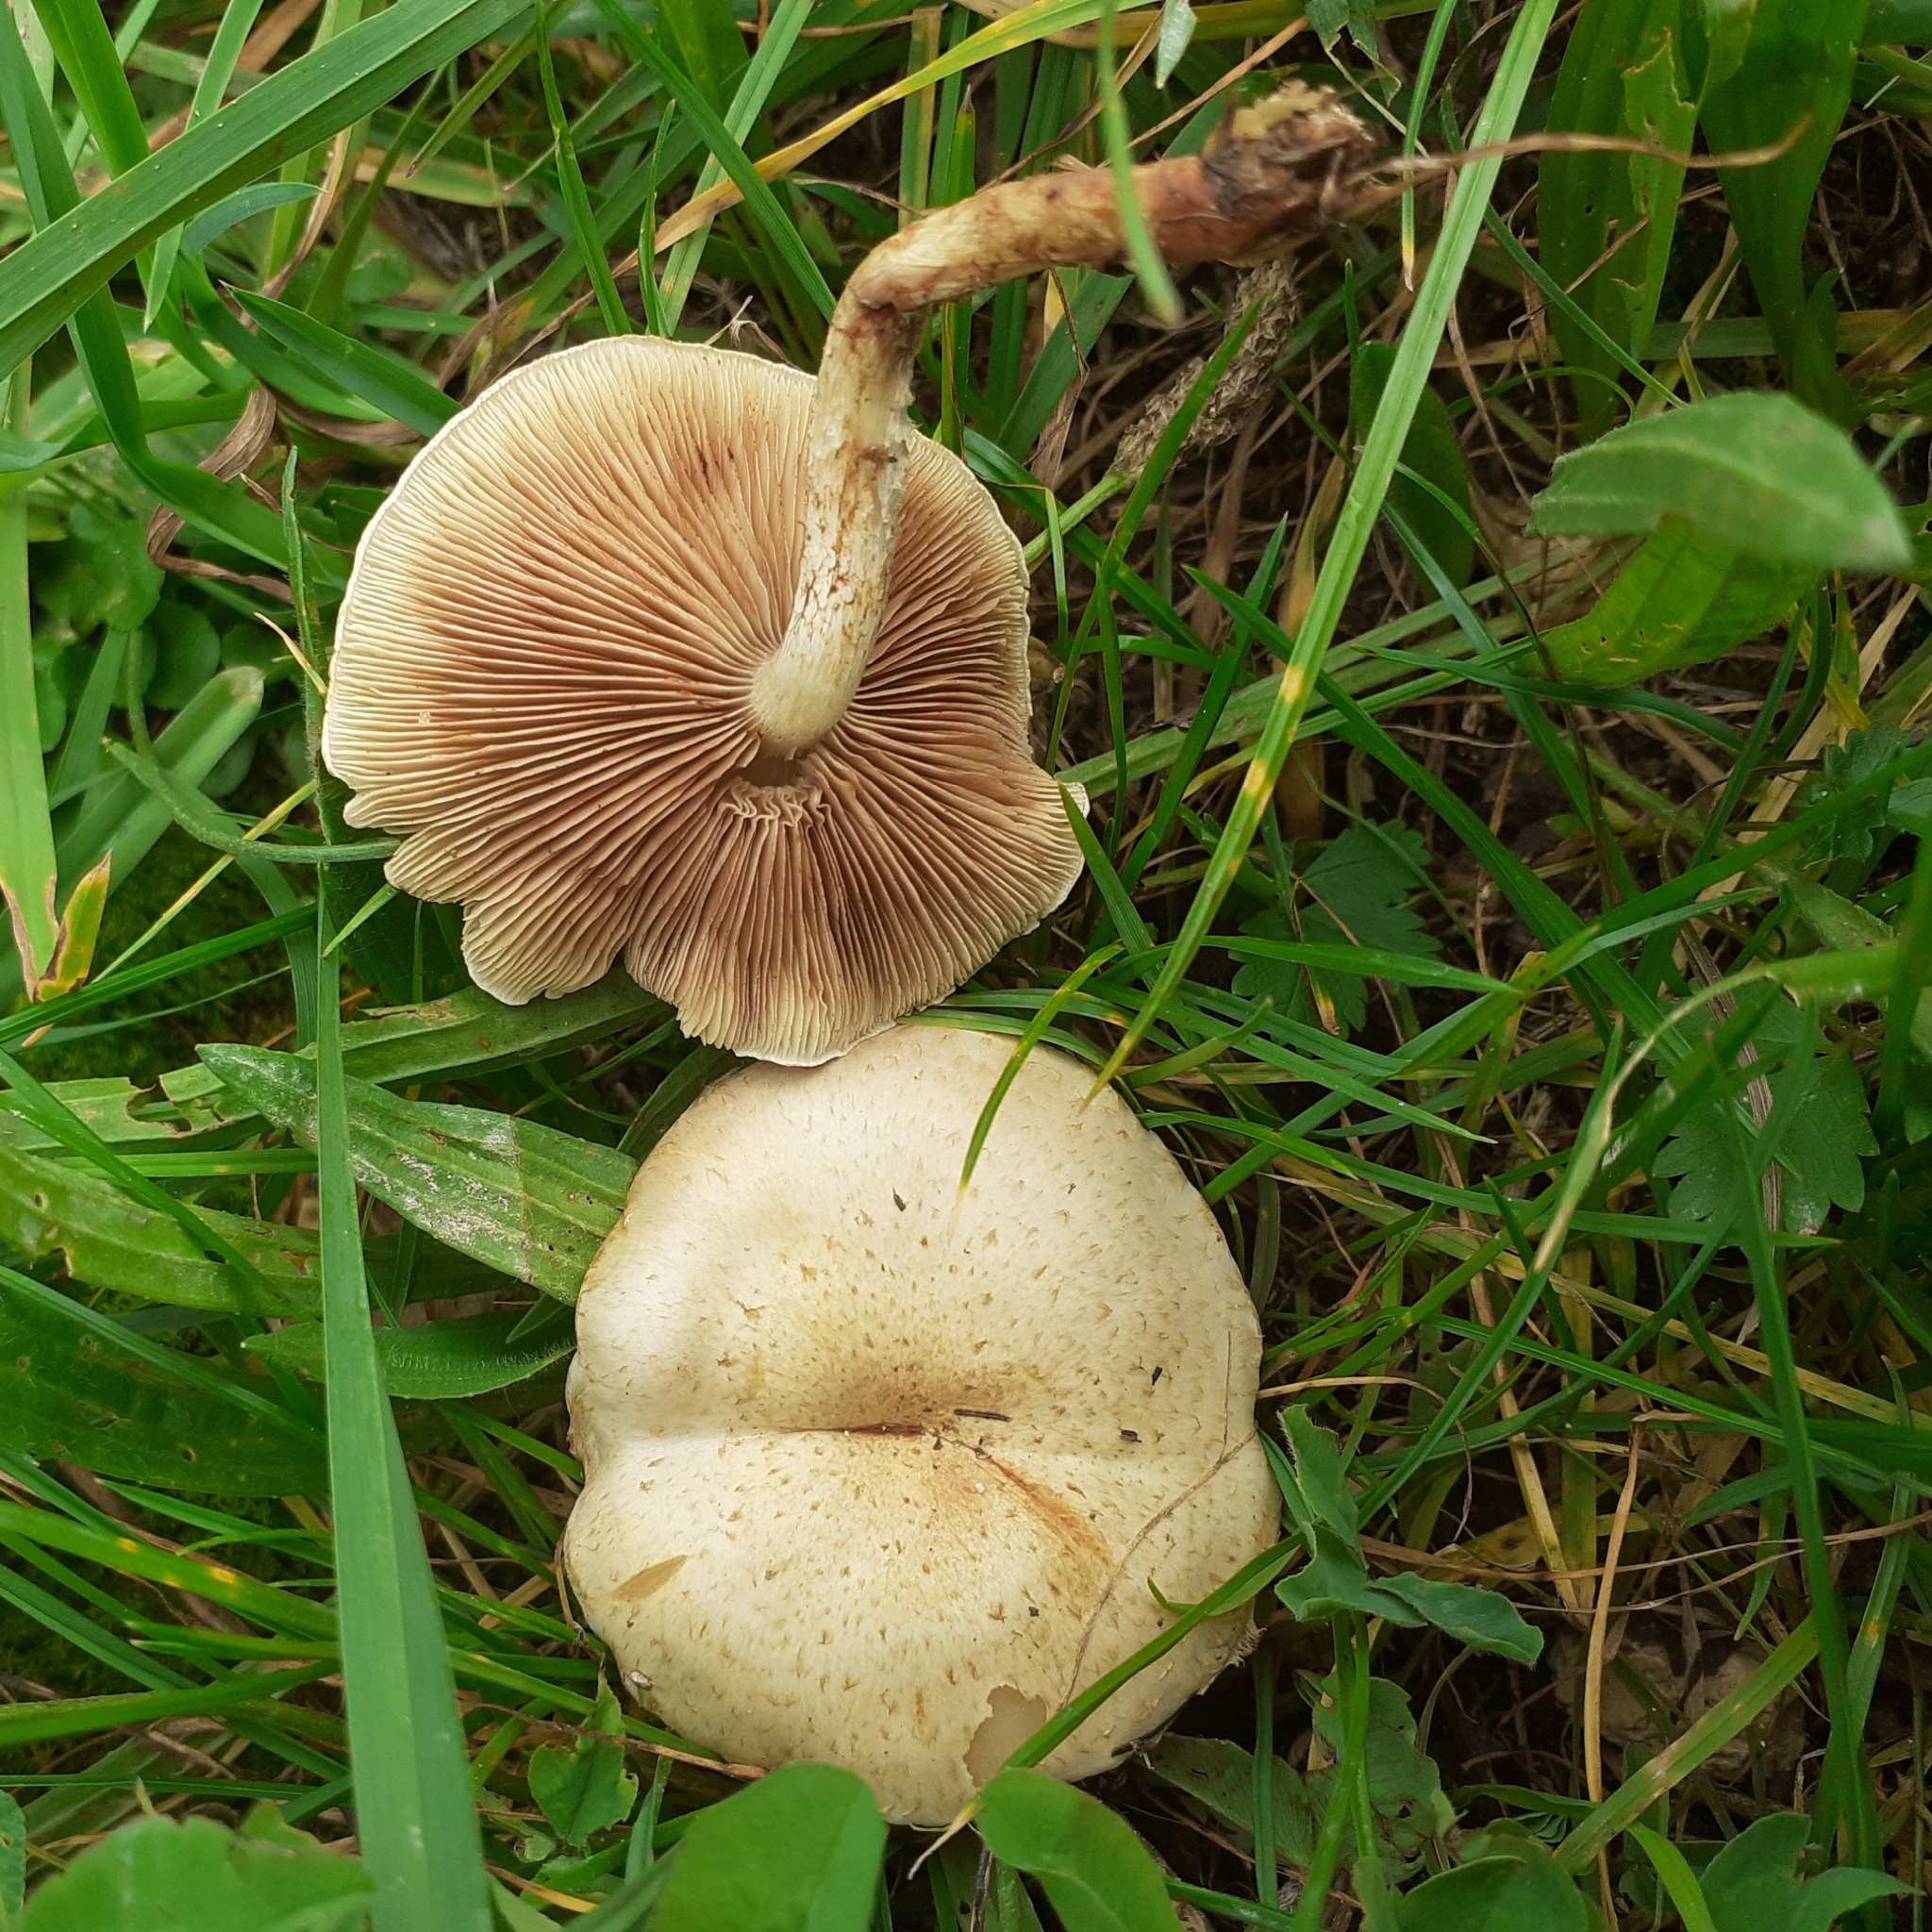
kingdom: Fungi
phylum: Basidiomycota
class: Agaricomycetes
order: Agaricales
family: Strophariaceae
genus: Pholiota
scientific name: Pholiota gummosa
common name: Sticky scalycap
